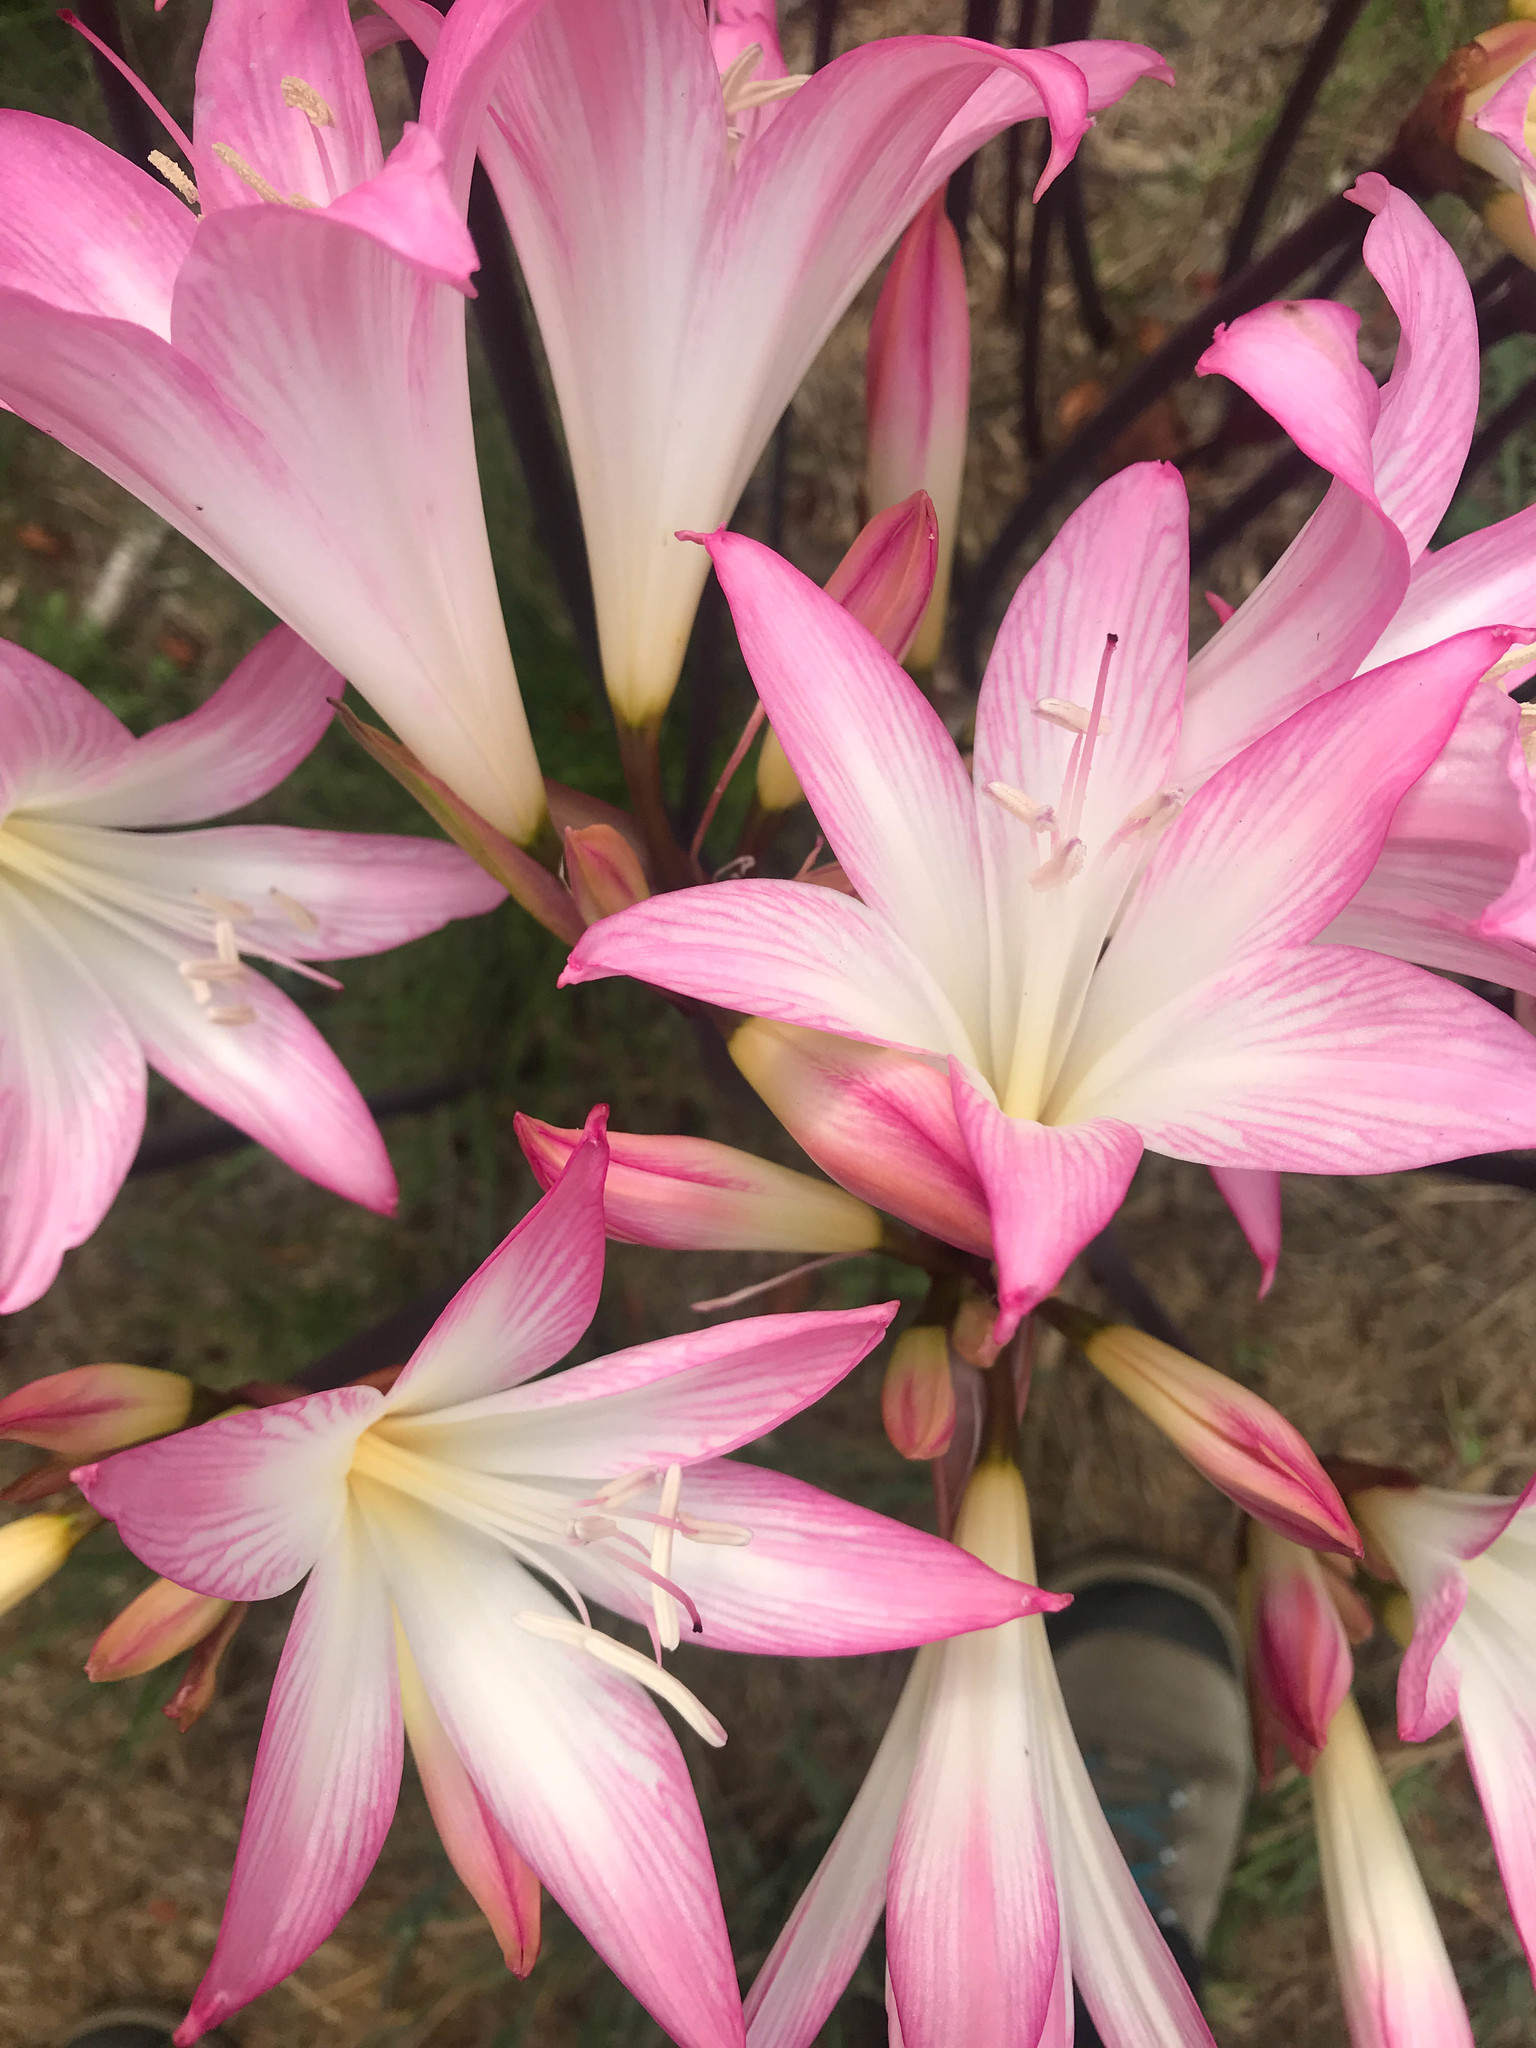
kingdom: Plantae
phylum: Tracheophyta
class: Liliopsida
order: Asparagales
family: Amaryllidaceae
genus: Amaryllis
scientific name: Amaryllis belladonna
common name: Jersey lily
